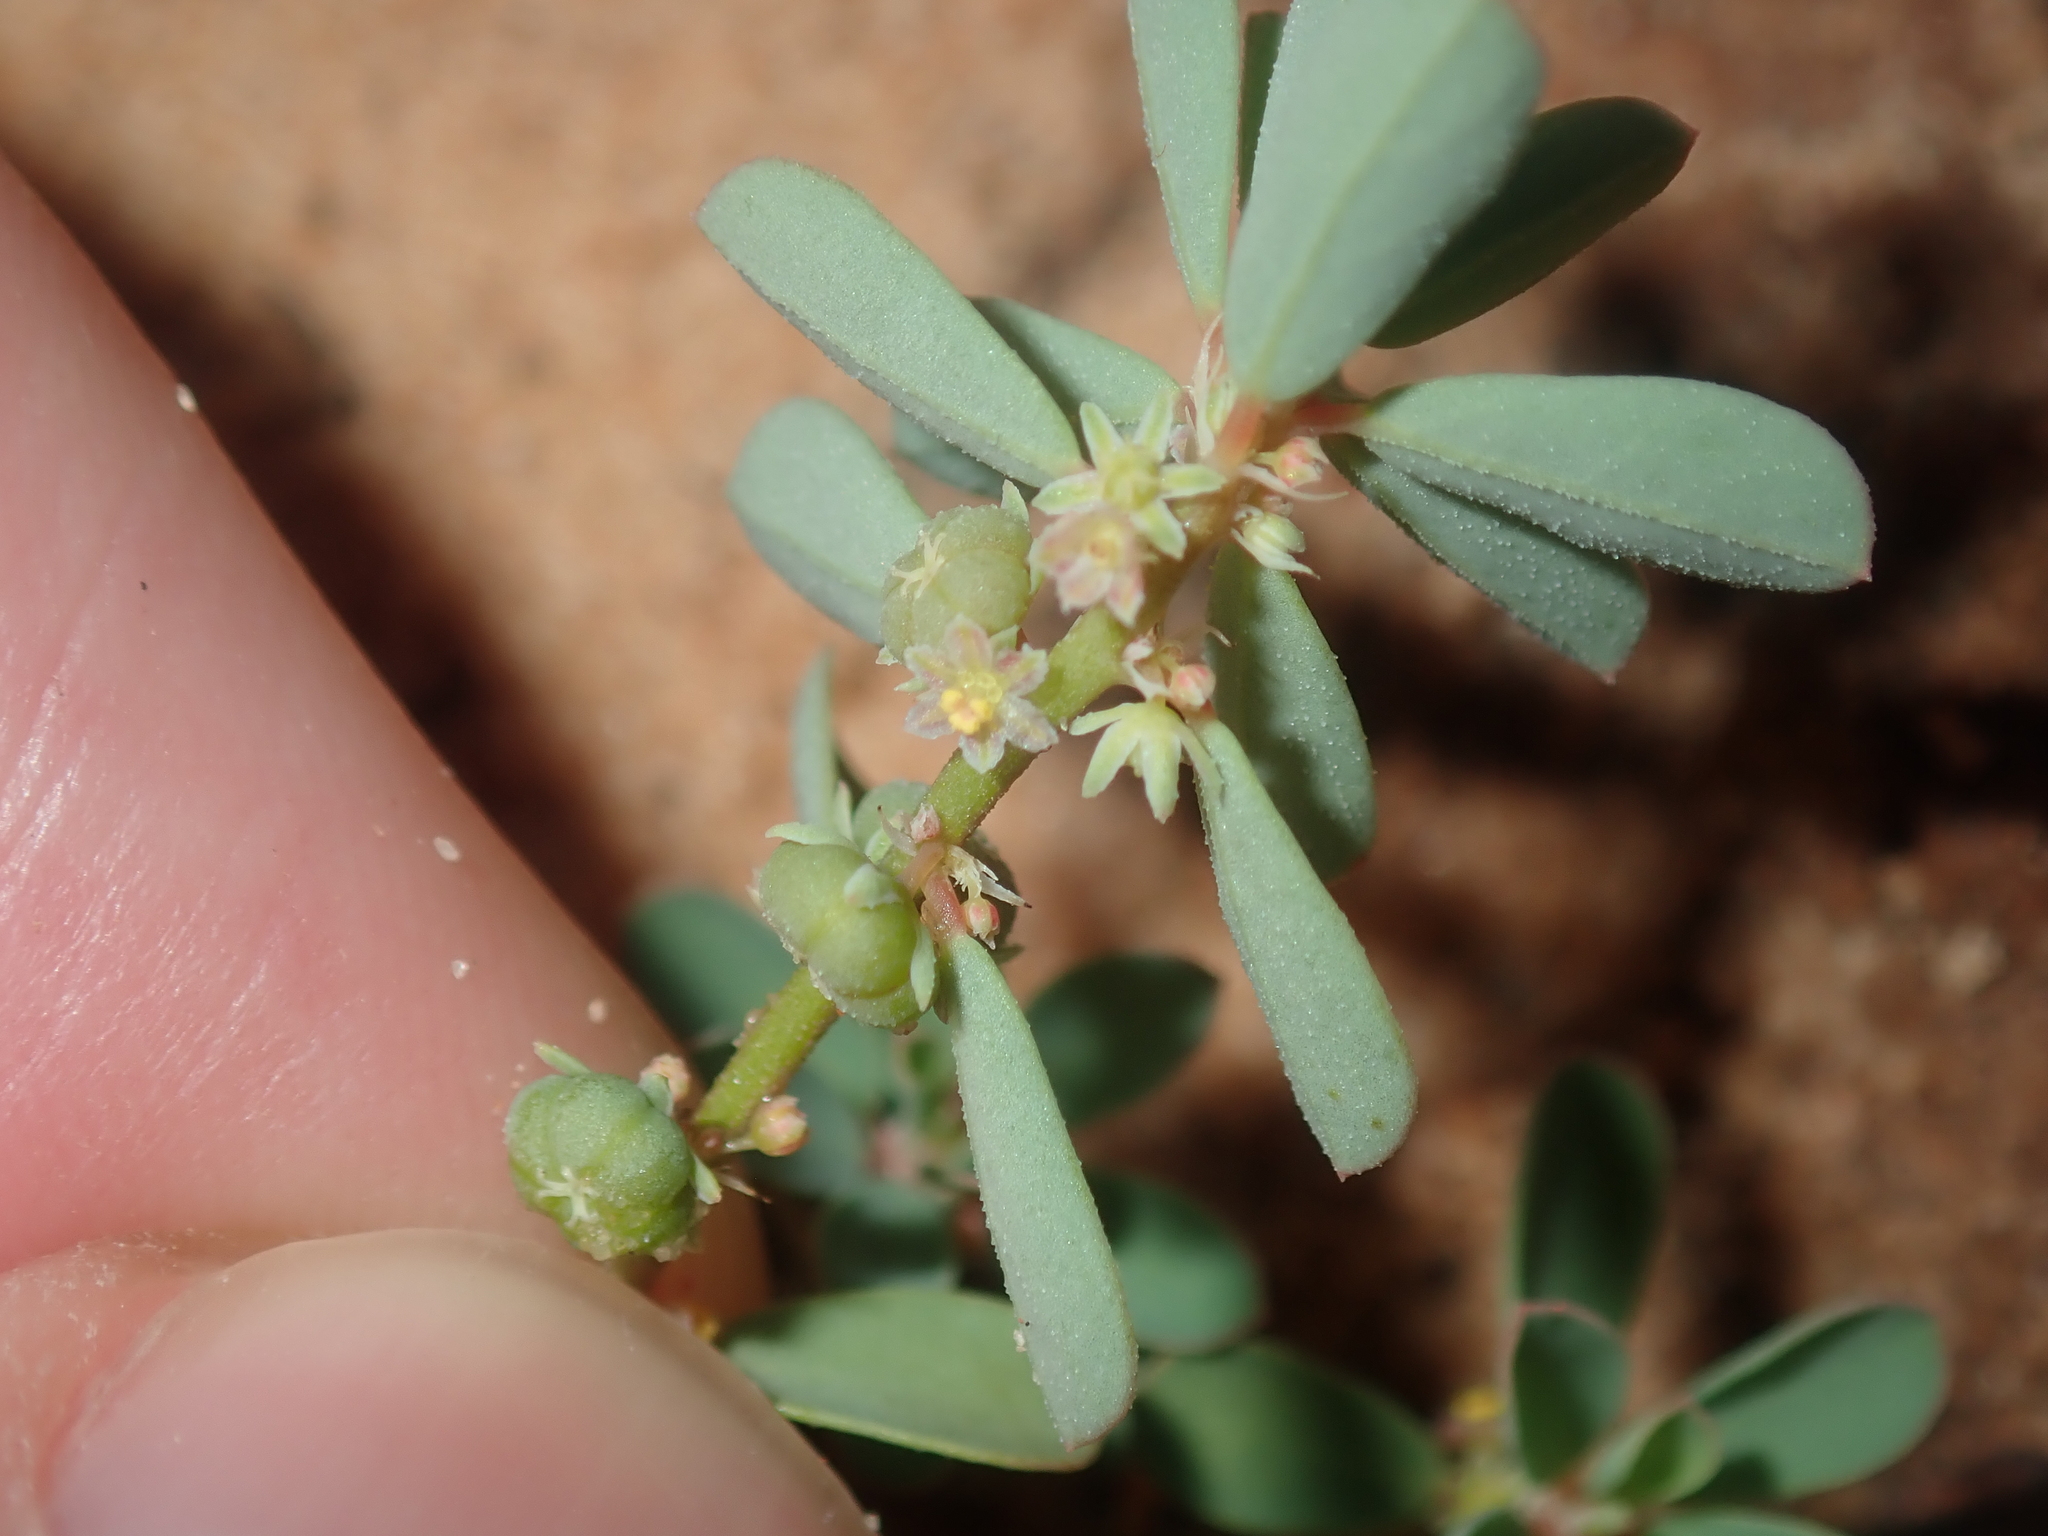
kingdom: Plantae
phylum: Tracheophyta
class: Magnoliopsida
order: Malpighiales
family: Phyllanthaceae
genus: Phyllanthus
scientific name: Phyllanthus erwinii
